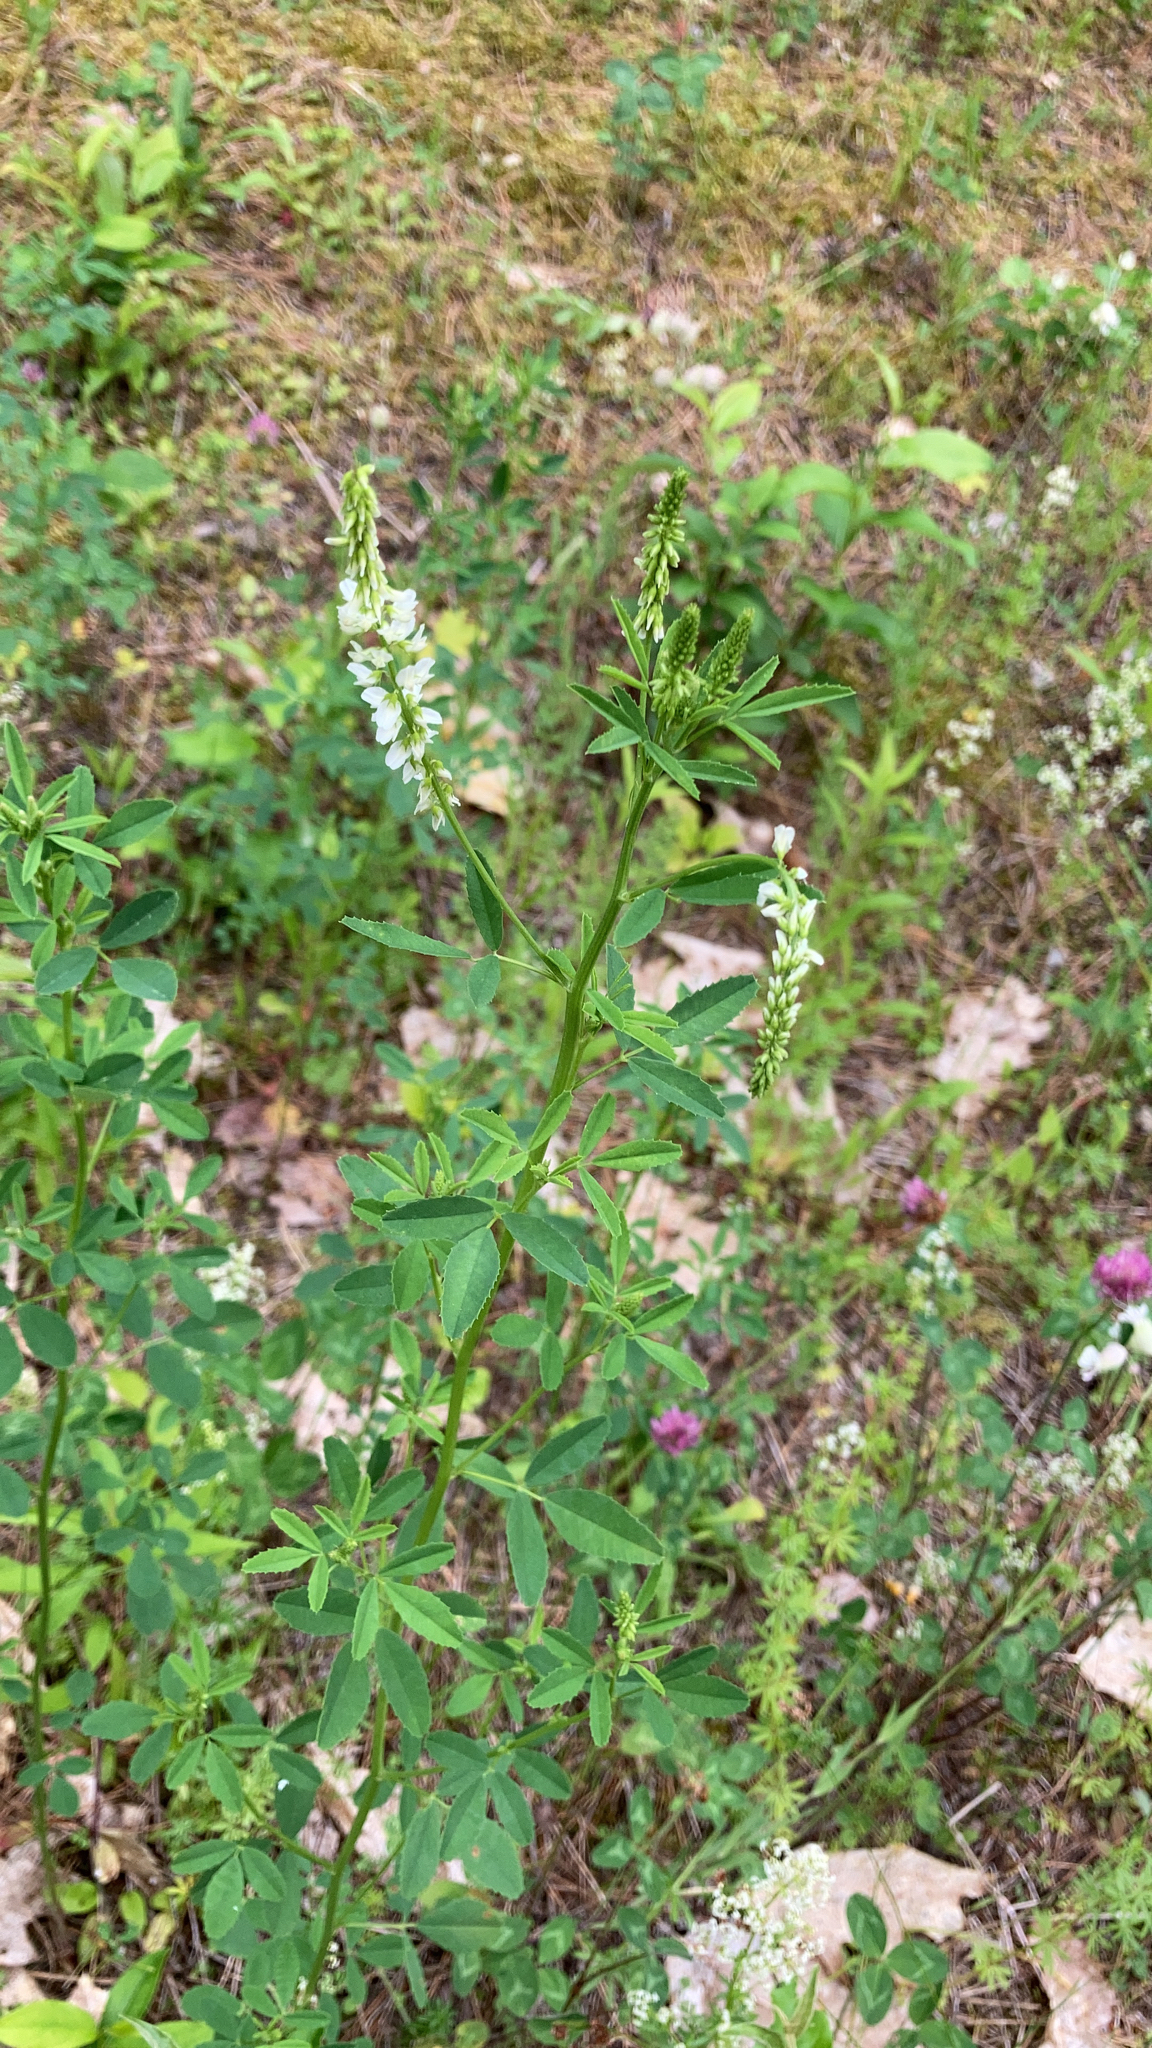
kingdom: Plantae
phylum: Tracheophyta
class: Magnoliopsida
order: Fabales
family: Fabaceae
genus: Melilotus
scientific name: Melilotus albus
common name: White melilot
